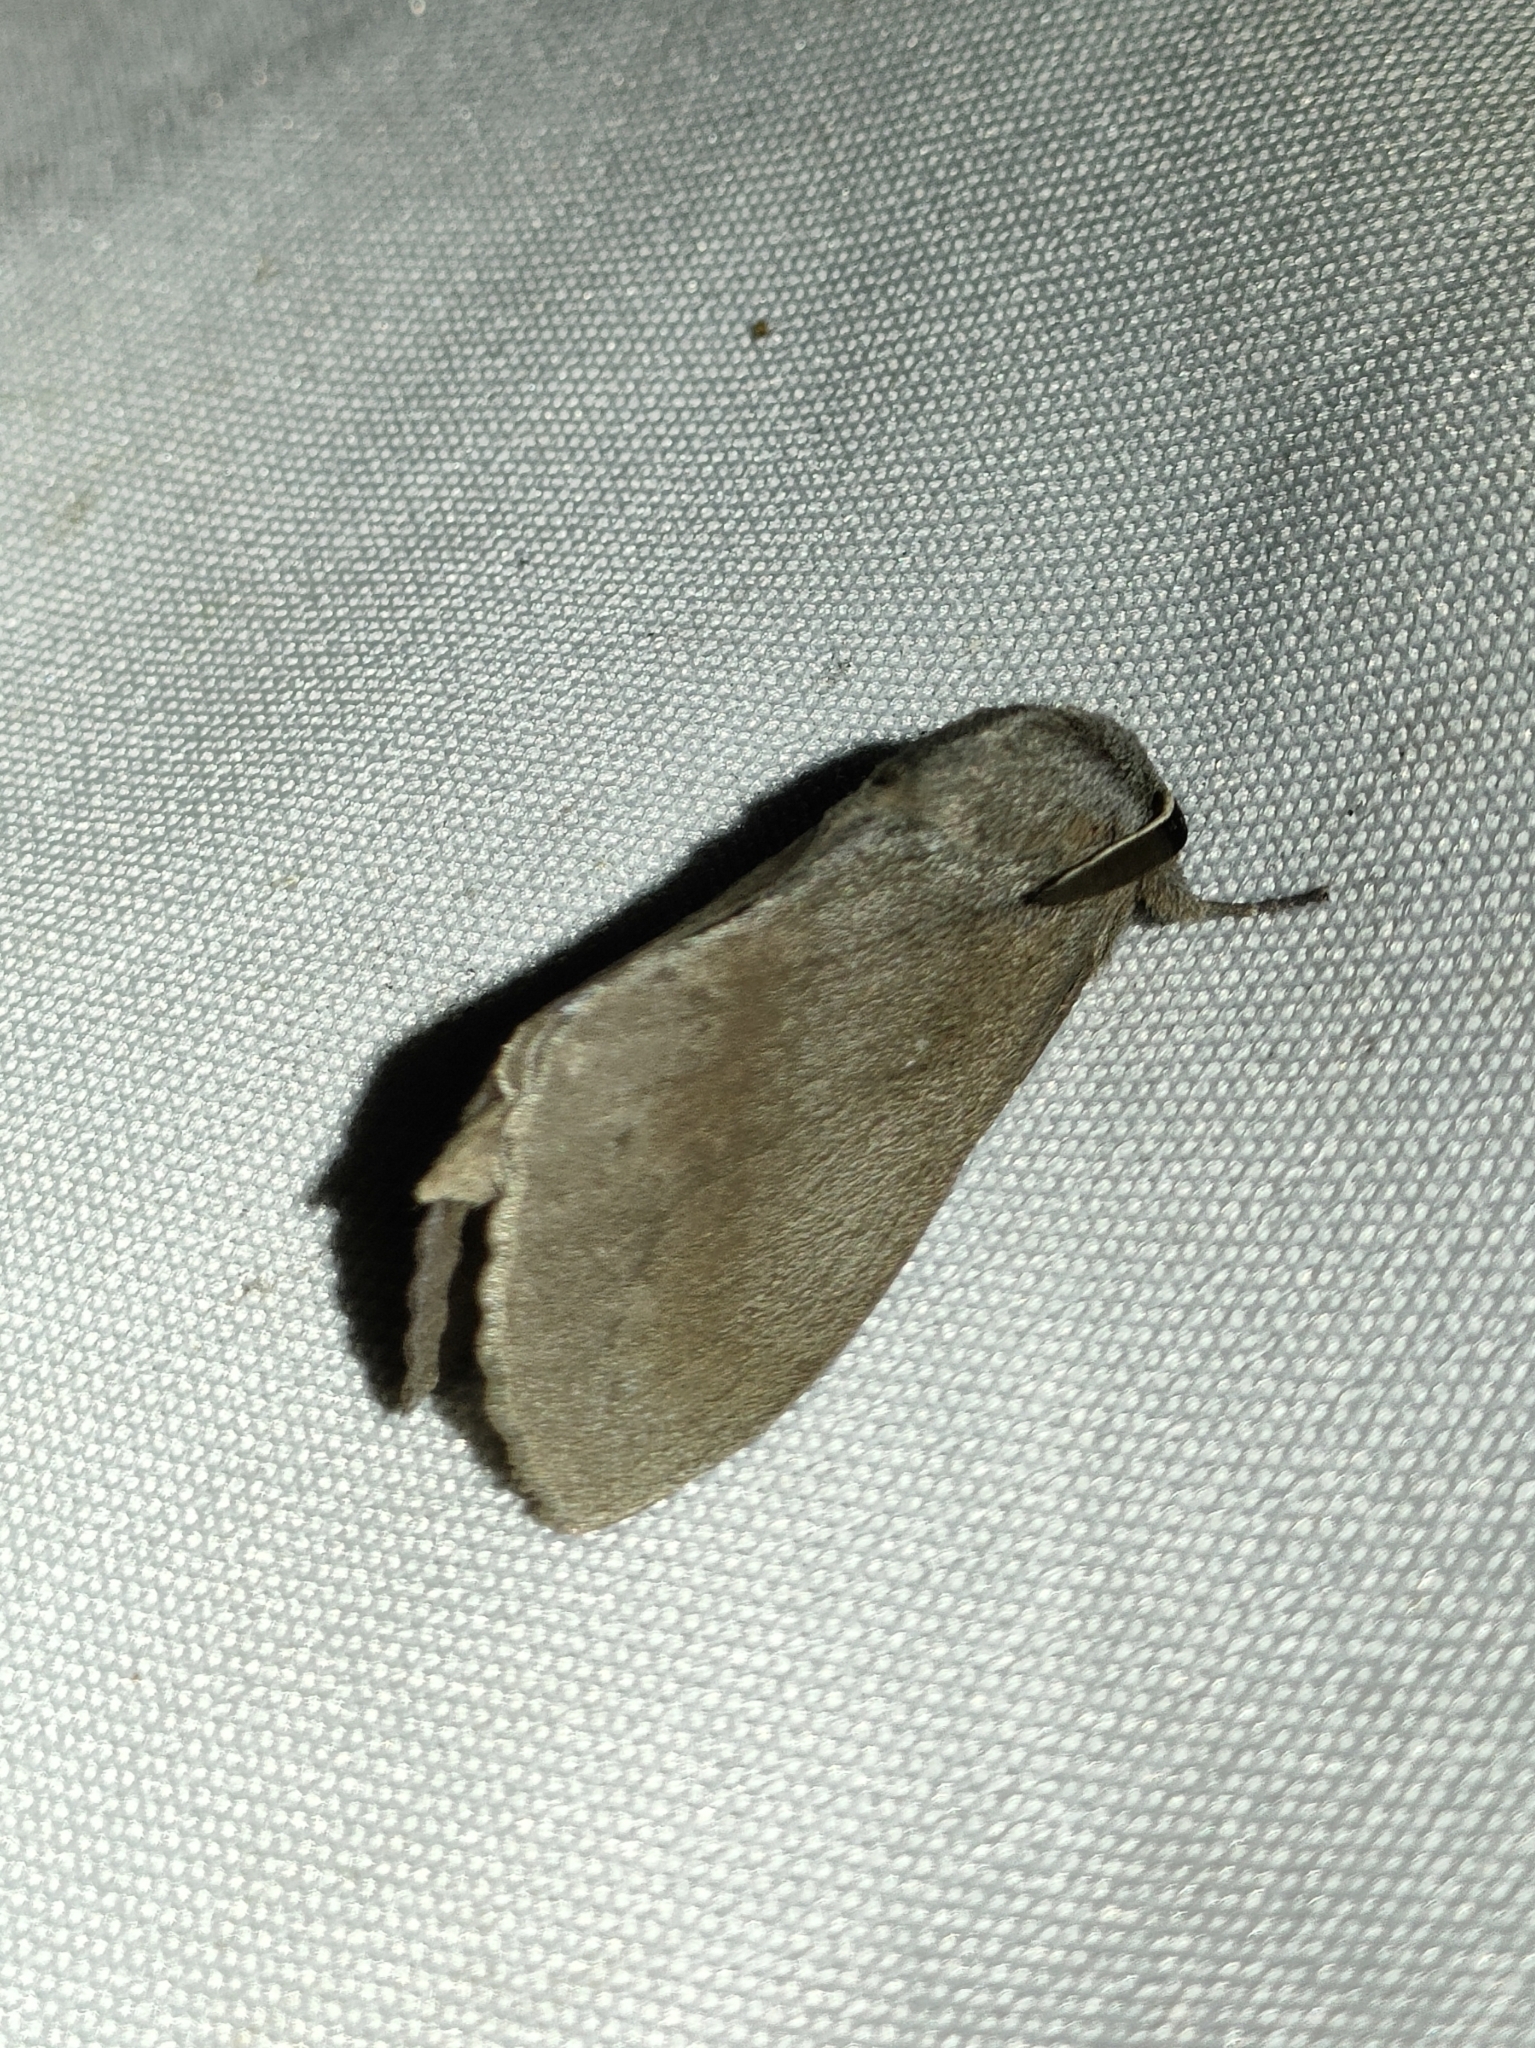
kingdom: Animalia
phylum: Arthropoda
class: Insecta
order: Lepidoptera
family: Lasiocampidae
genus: Dendrolimus
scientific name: Dendrolimus pini
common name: Pine-tree lappet
